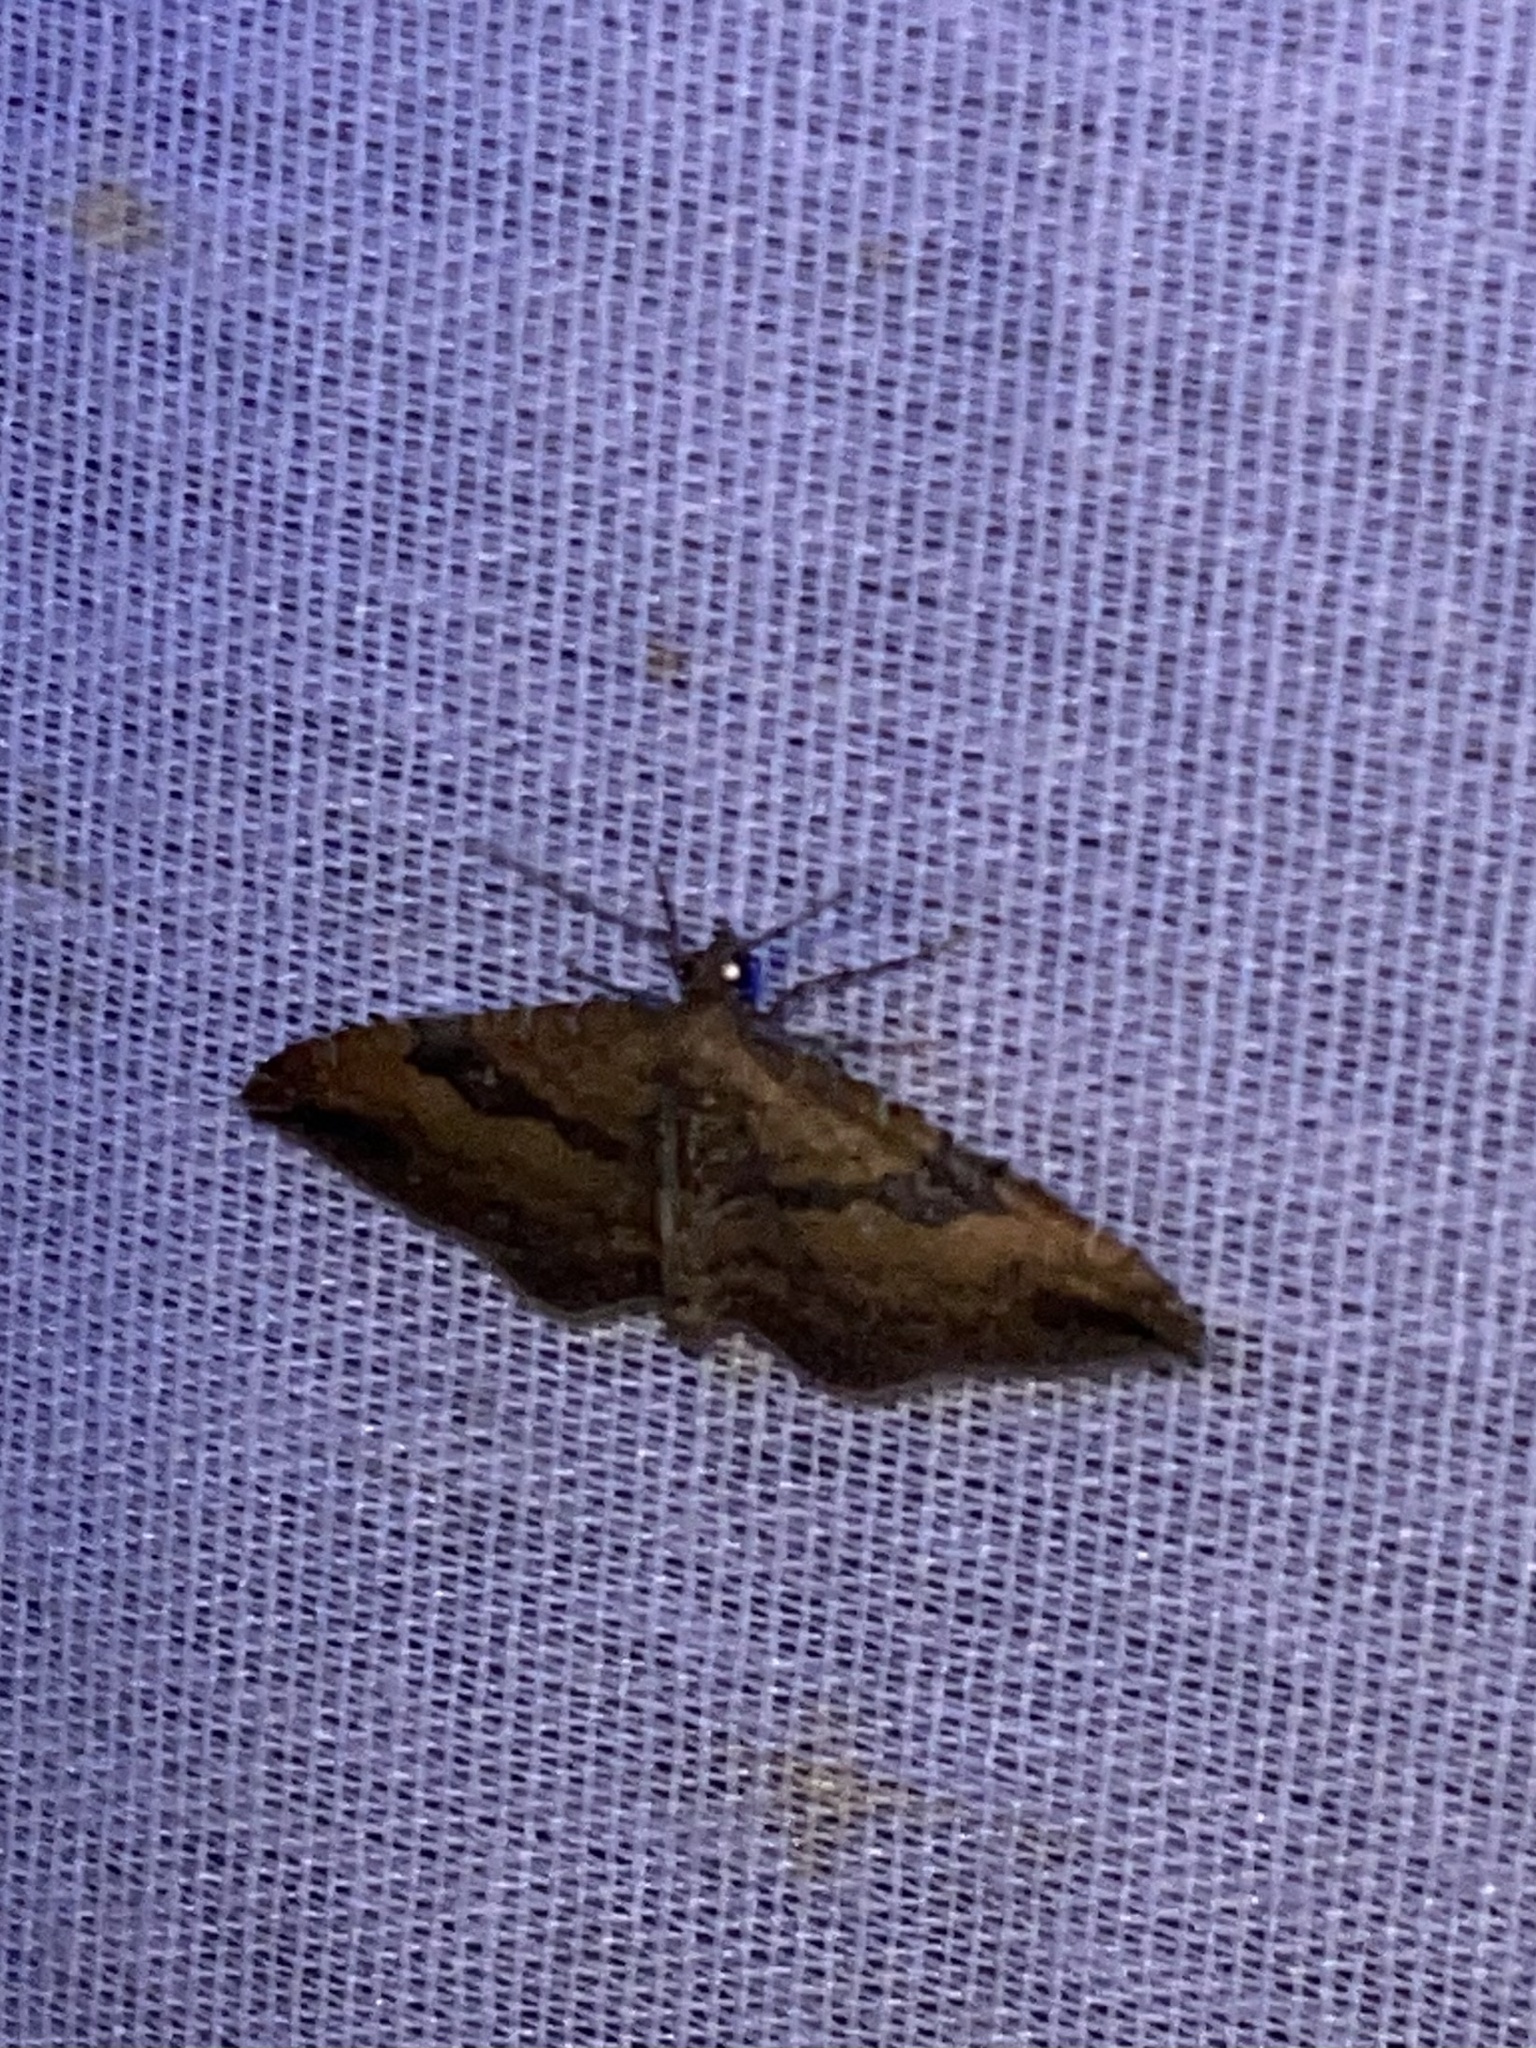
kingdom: Animalia
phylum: Arthropoda
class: Insecta
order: Lepidoptera
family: Geometridae
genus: Orthonama
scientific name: Orthonama obstipata
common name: The gem
